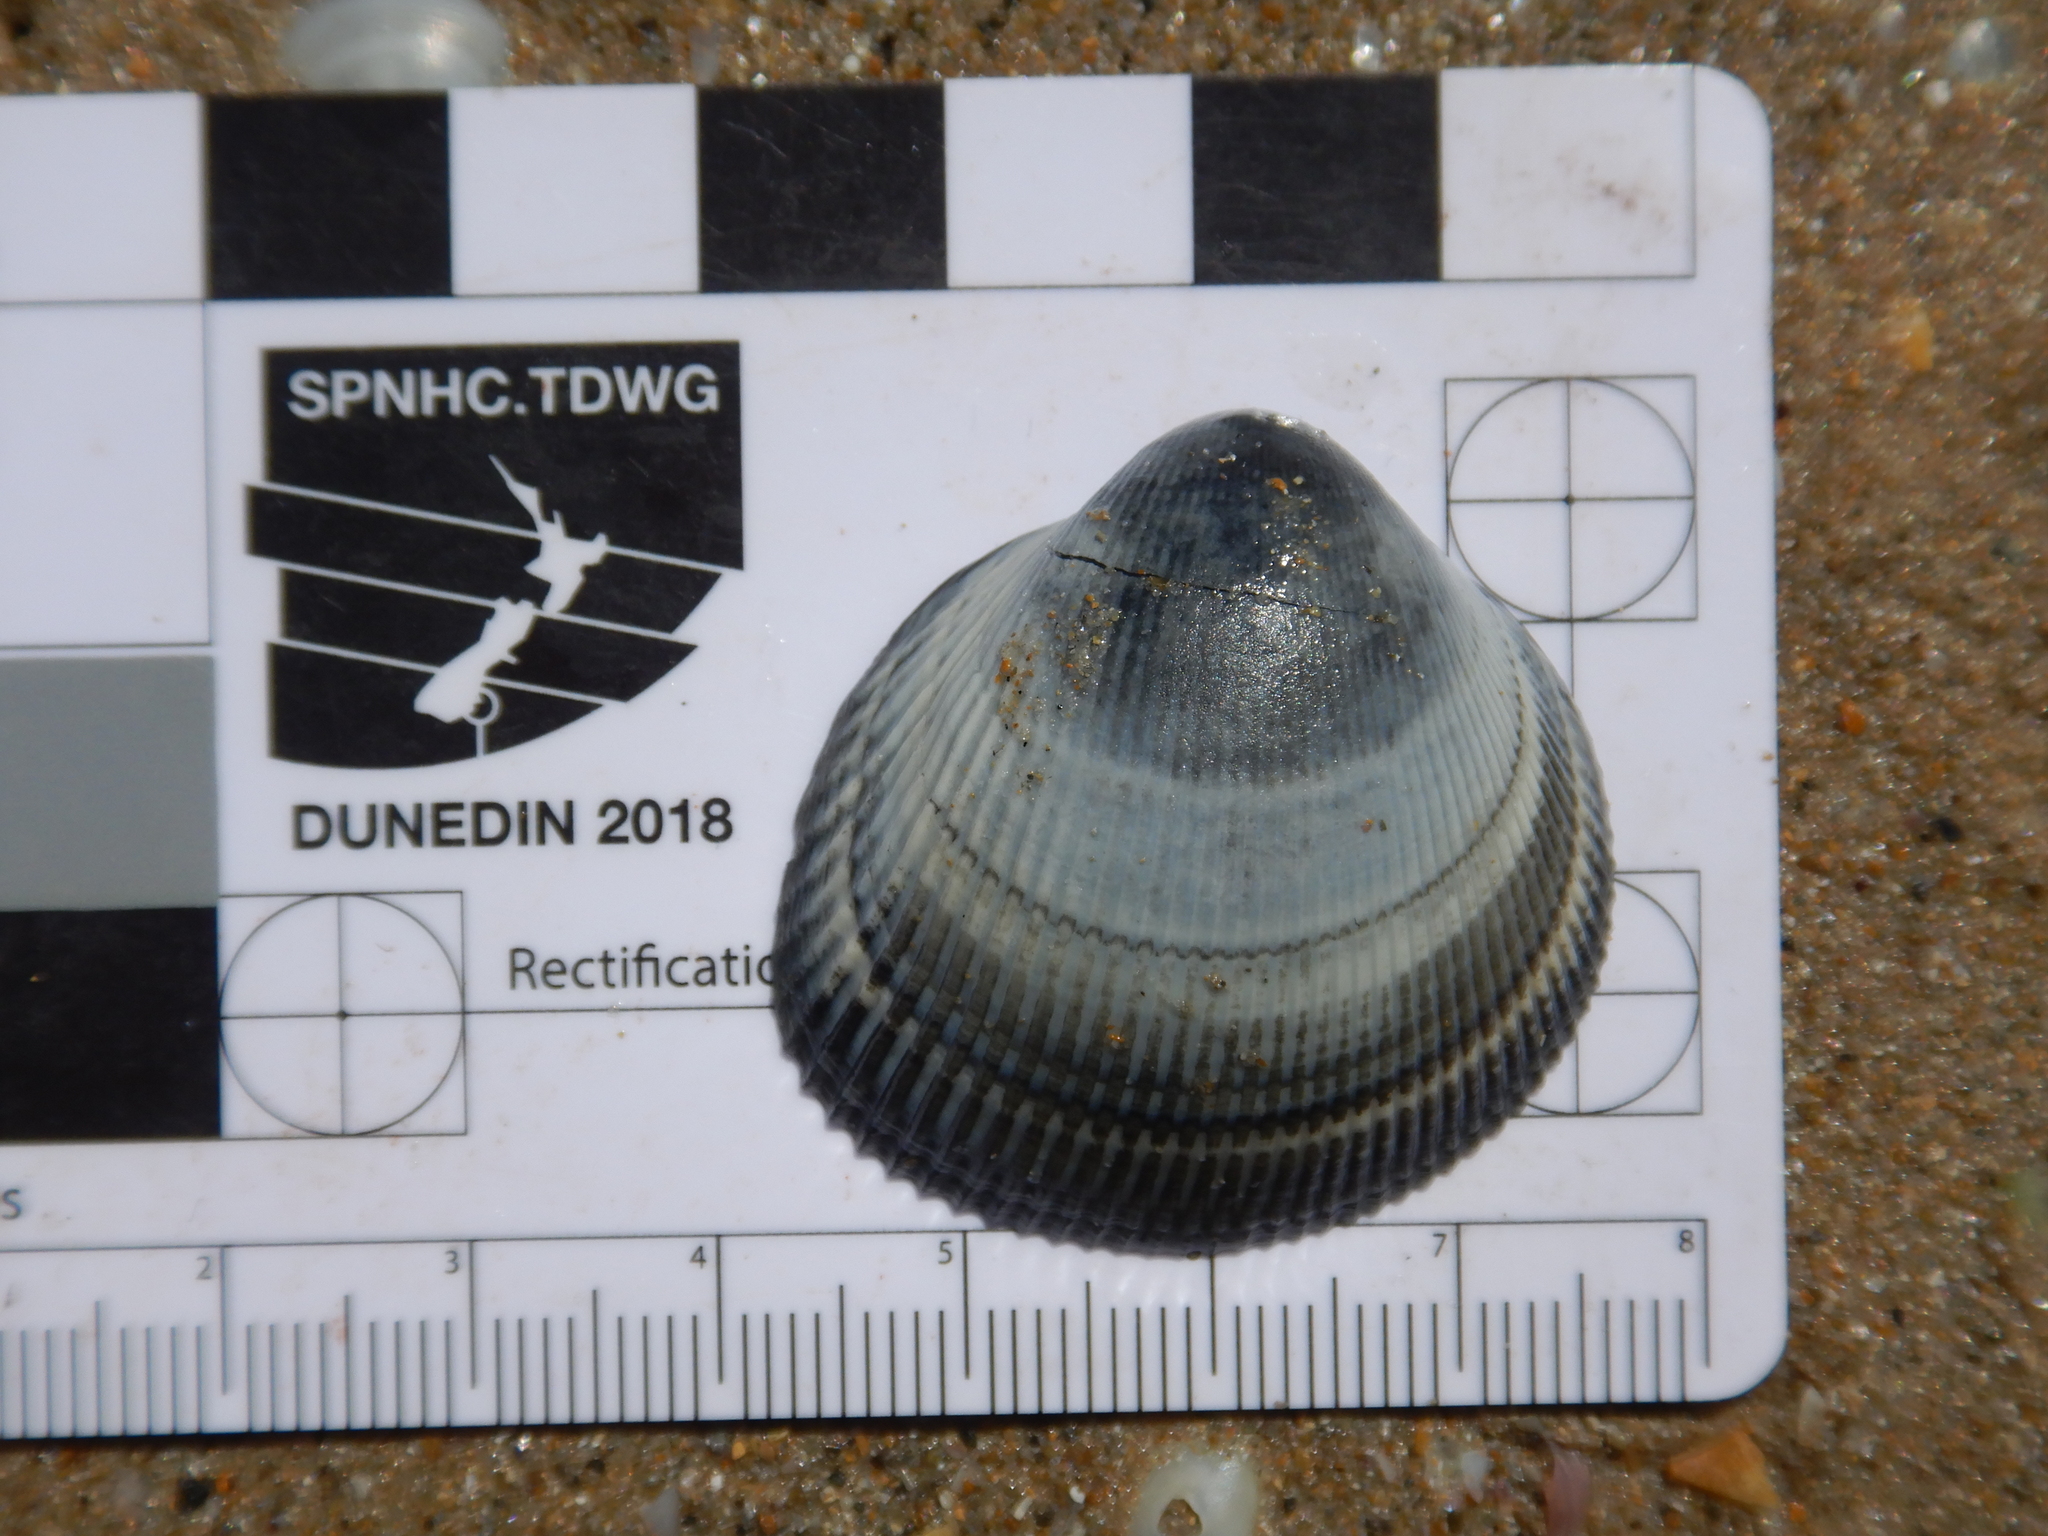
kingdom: Animalia
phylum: Mollusca
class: Bivalvia
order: Cardiida
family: Cardiidae
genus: Fulvia
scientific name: Fulvia tenuicostata
